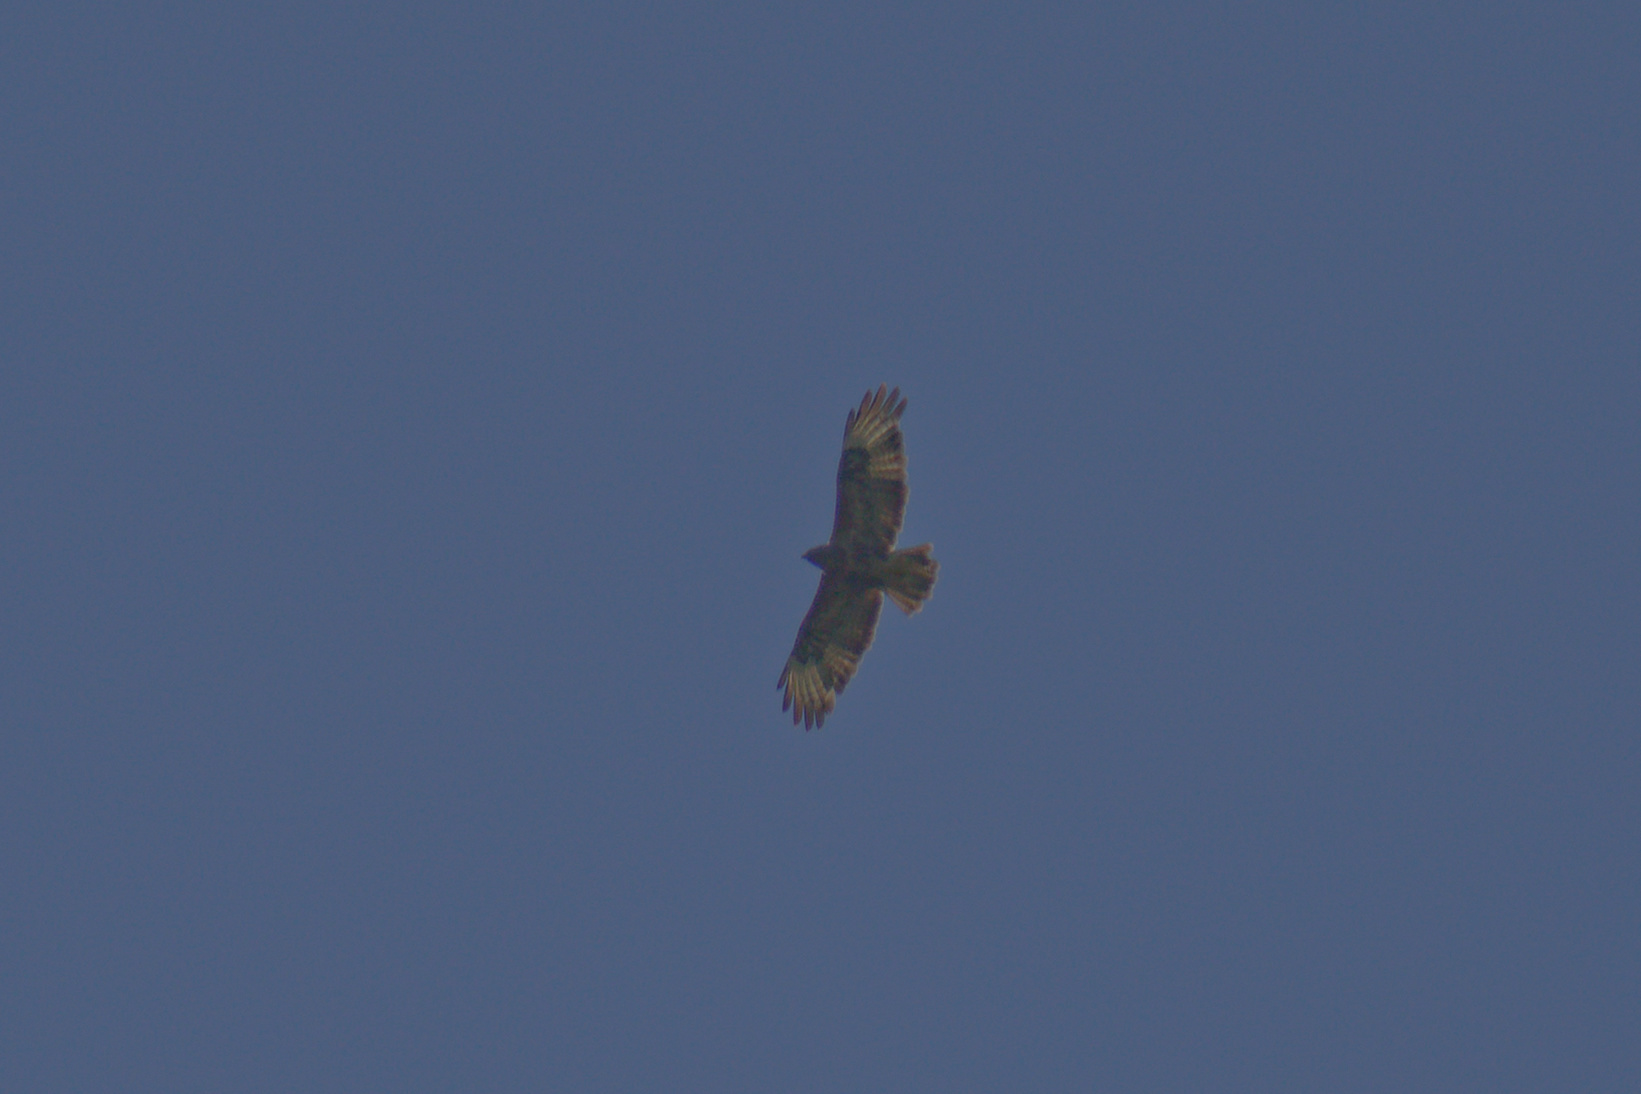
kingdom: Animalia
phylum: Chordata
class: Aves
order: Accipitriformes
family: Accipitridae
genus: Buteo
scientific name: Buteo buteo
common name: Common buzzard
